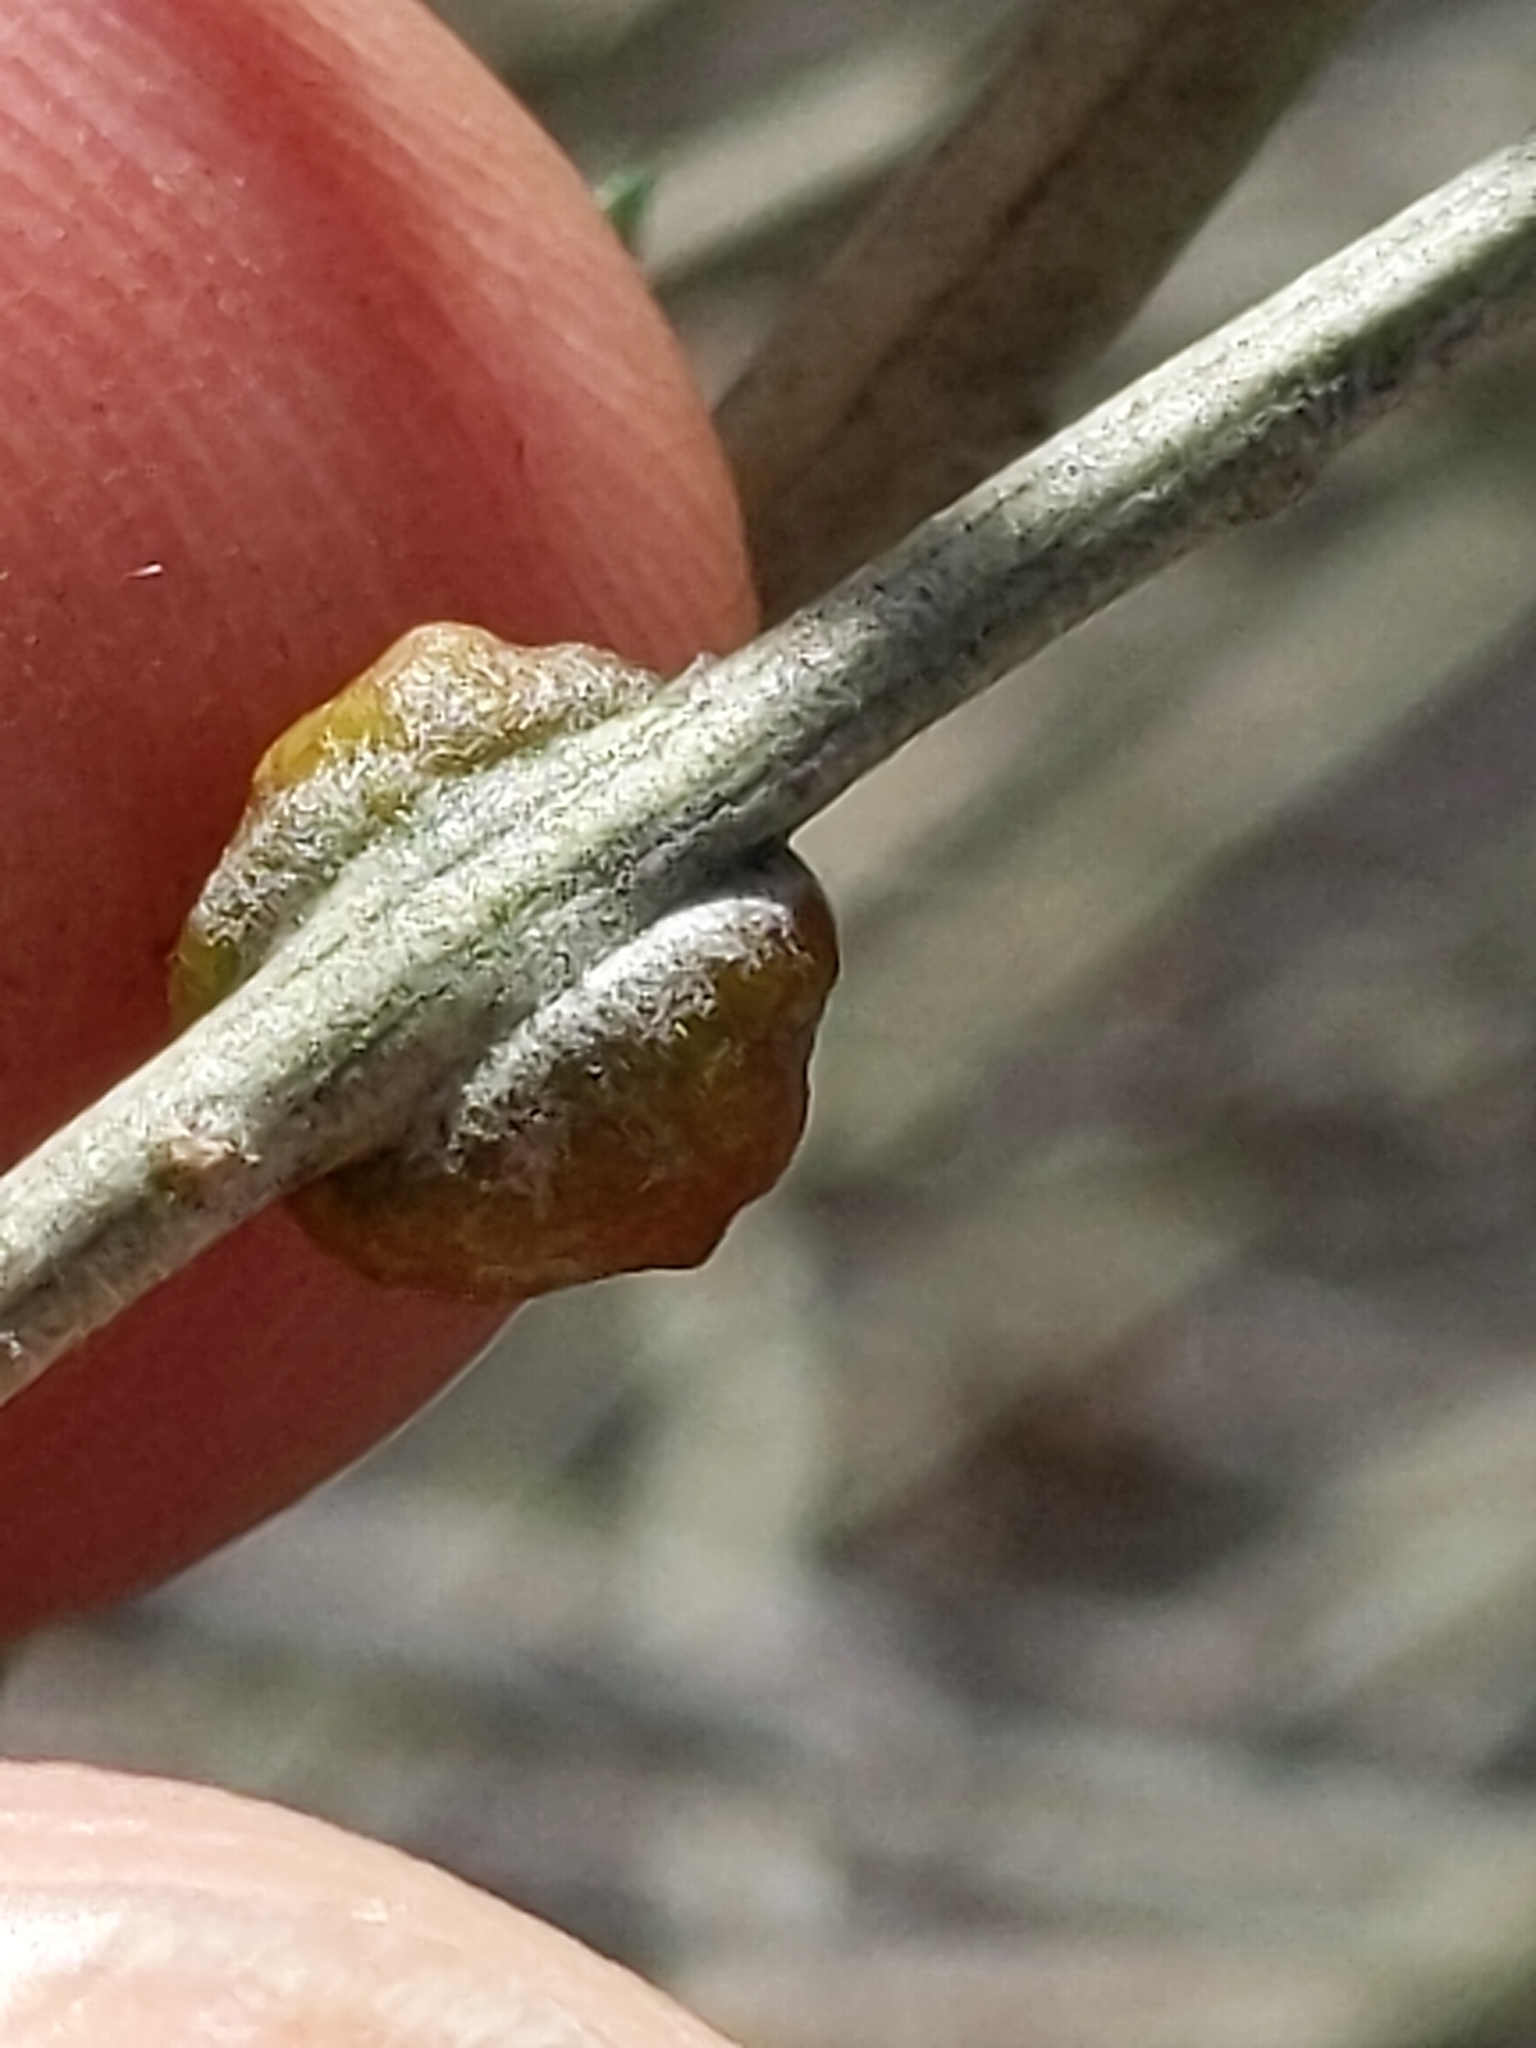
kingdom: Animalia
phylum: Arthropoda
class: Insecta
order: Diptera
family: Cecidomyiidae
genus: Rhopalomyia
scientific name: Rhopalomyia glutinosa
